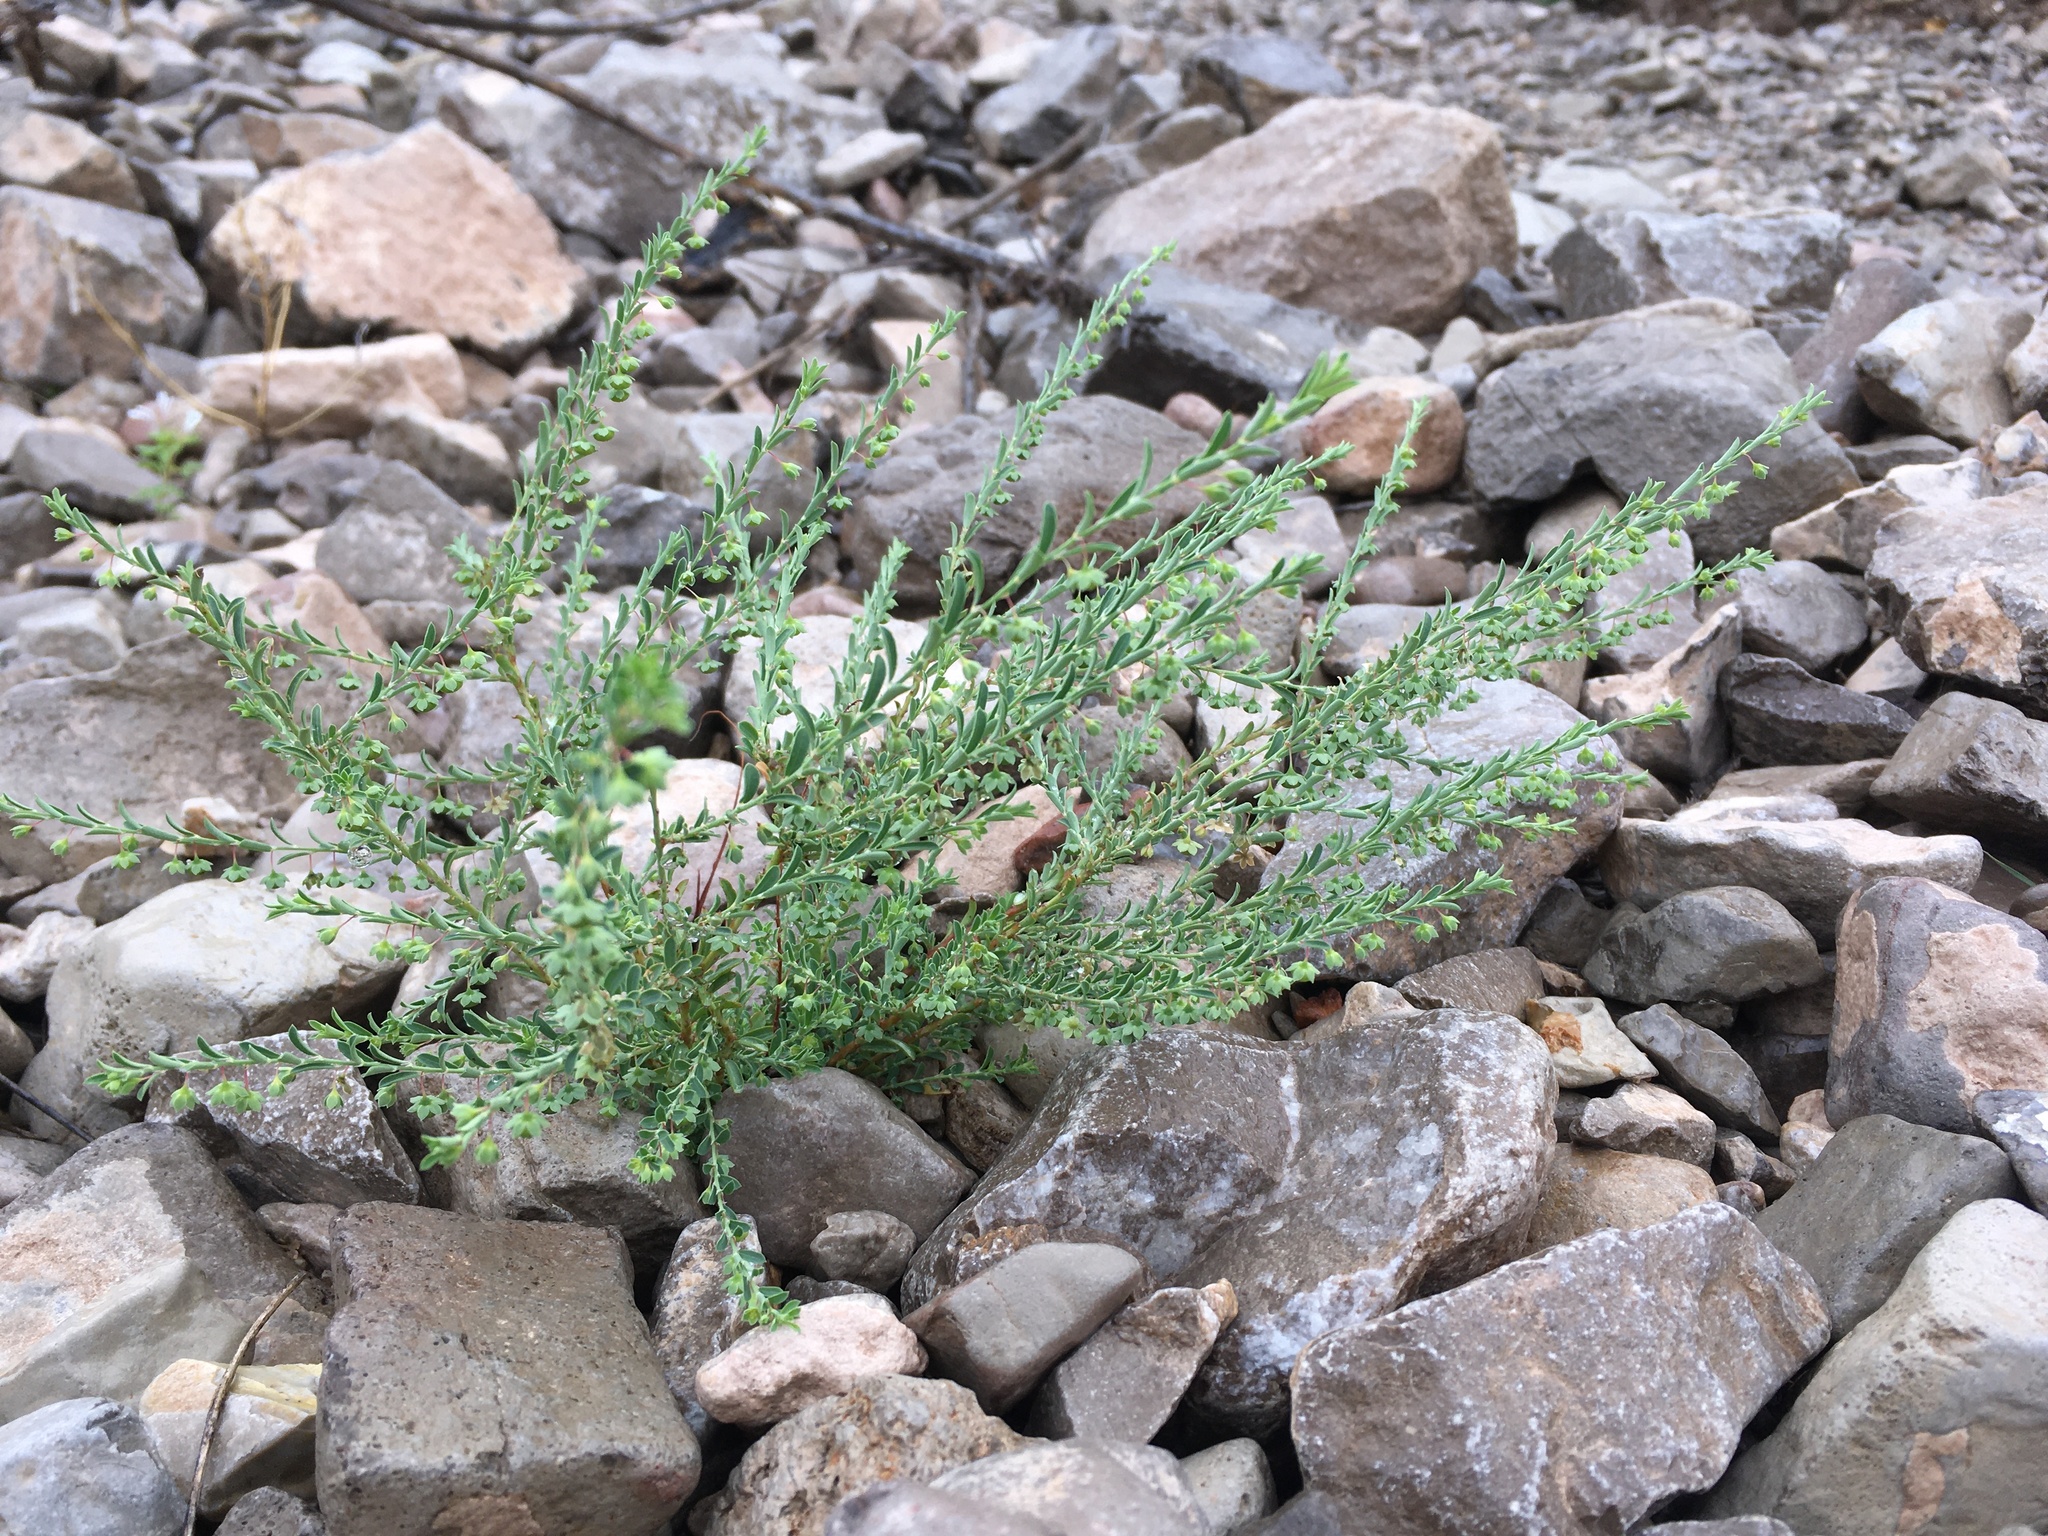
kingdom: Plantae
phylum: Tracheophyta
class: Magnoliopsida
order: Malpighiales
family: Phyllanthaceae
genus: Phyllanthus
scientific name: Phyllanthus polygonoides
